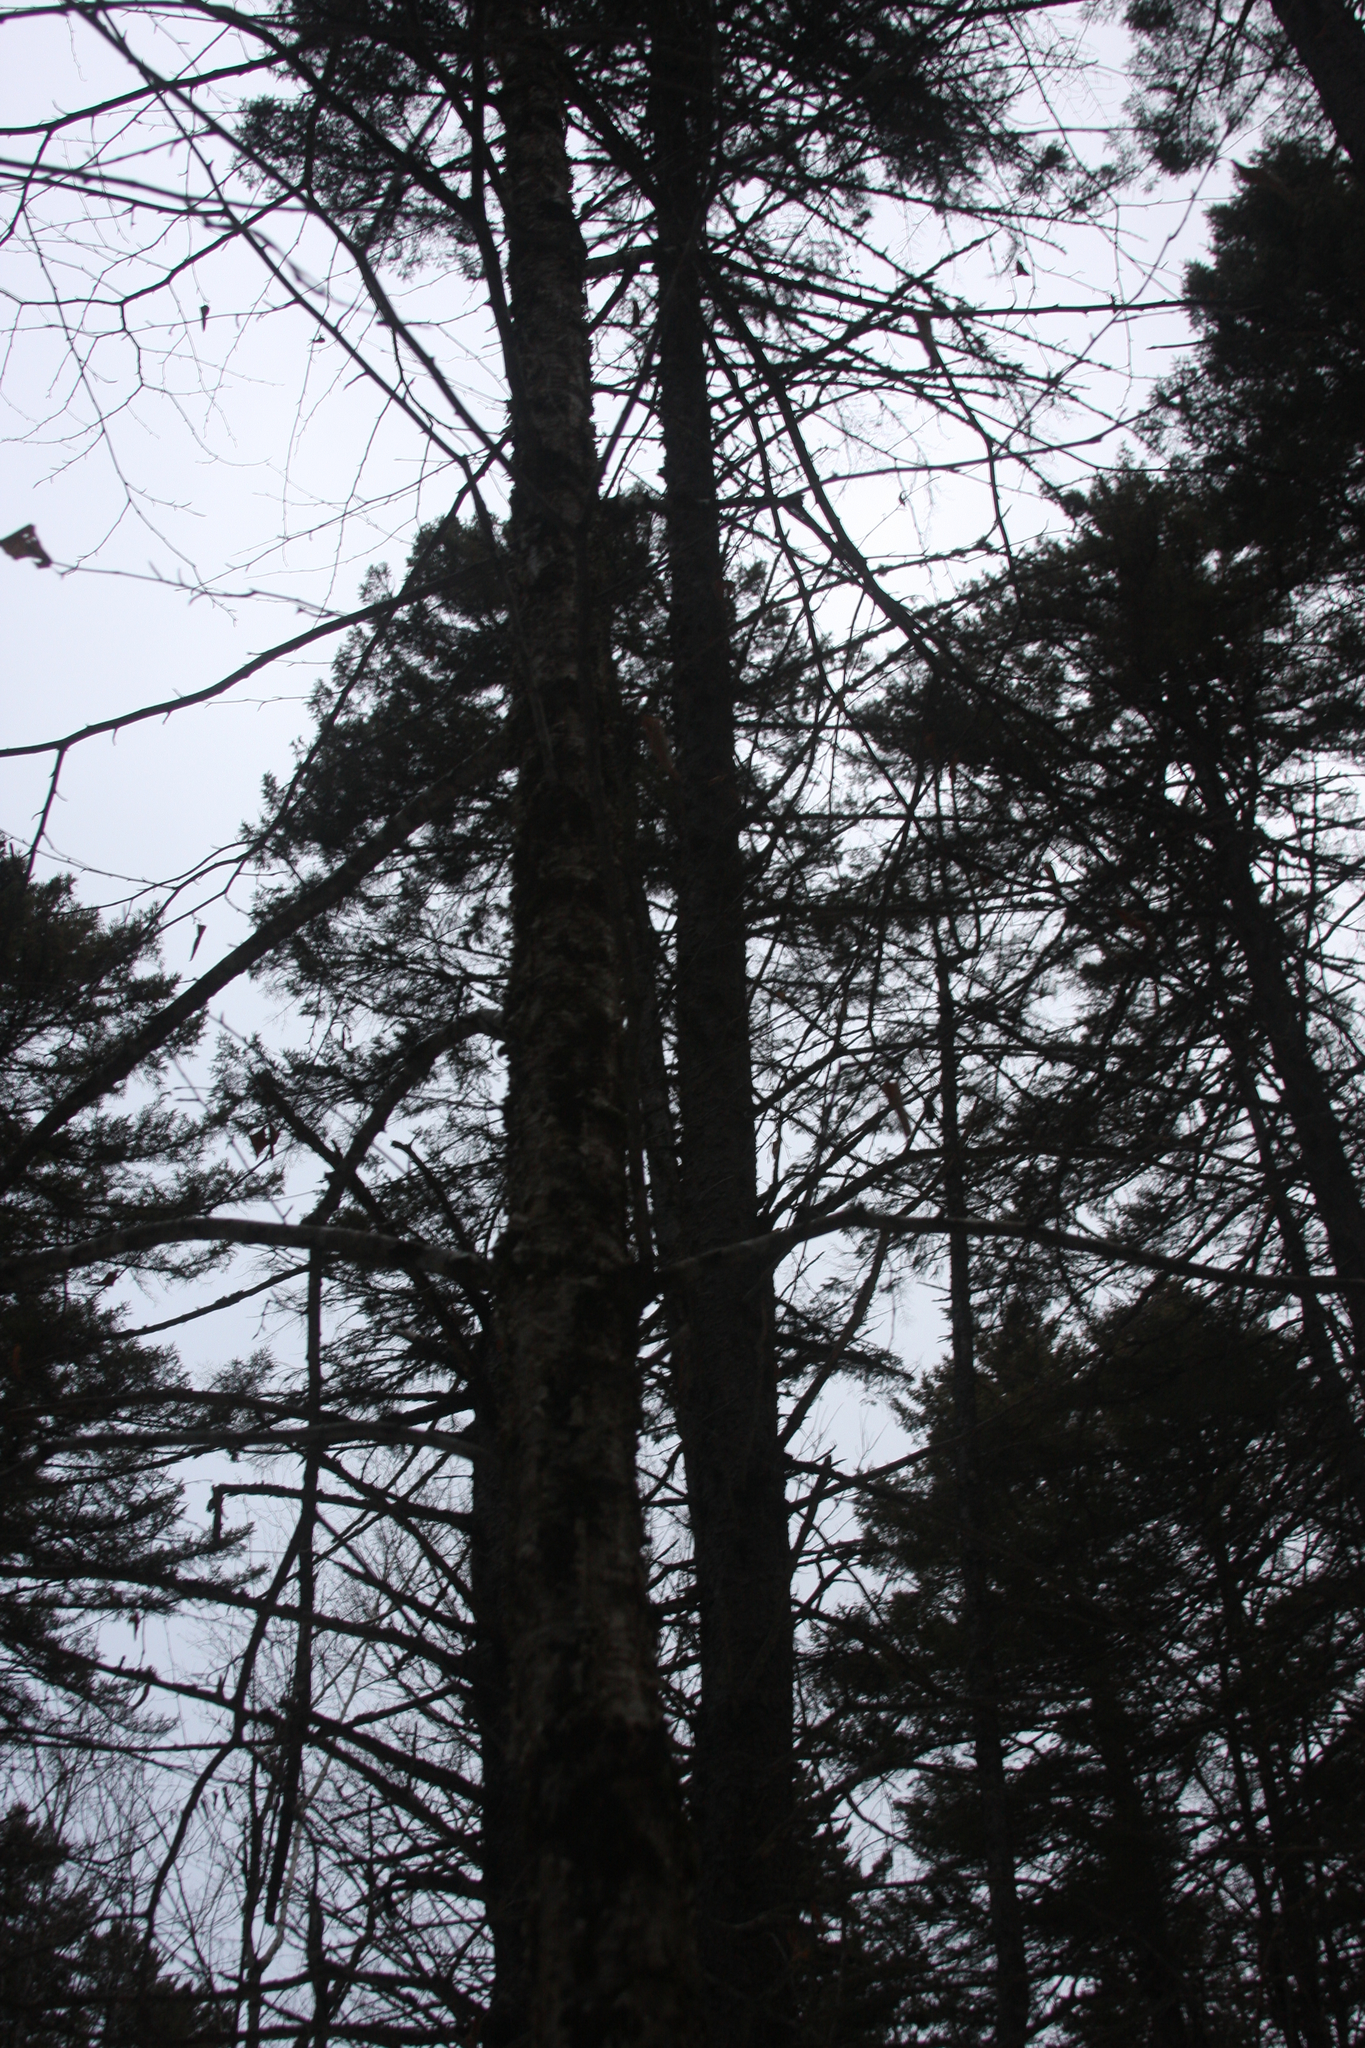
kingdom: Plantae
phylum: Tracheophyta
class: Magnoliopsida
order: Fagales
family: Betulaceae
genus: Betula
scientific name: Betula alleghaniensis
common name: Yellow birch
